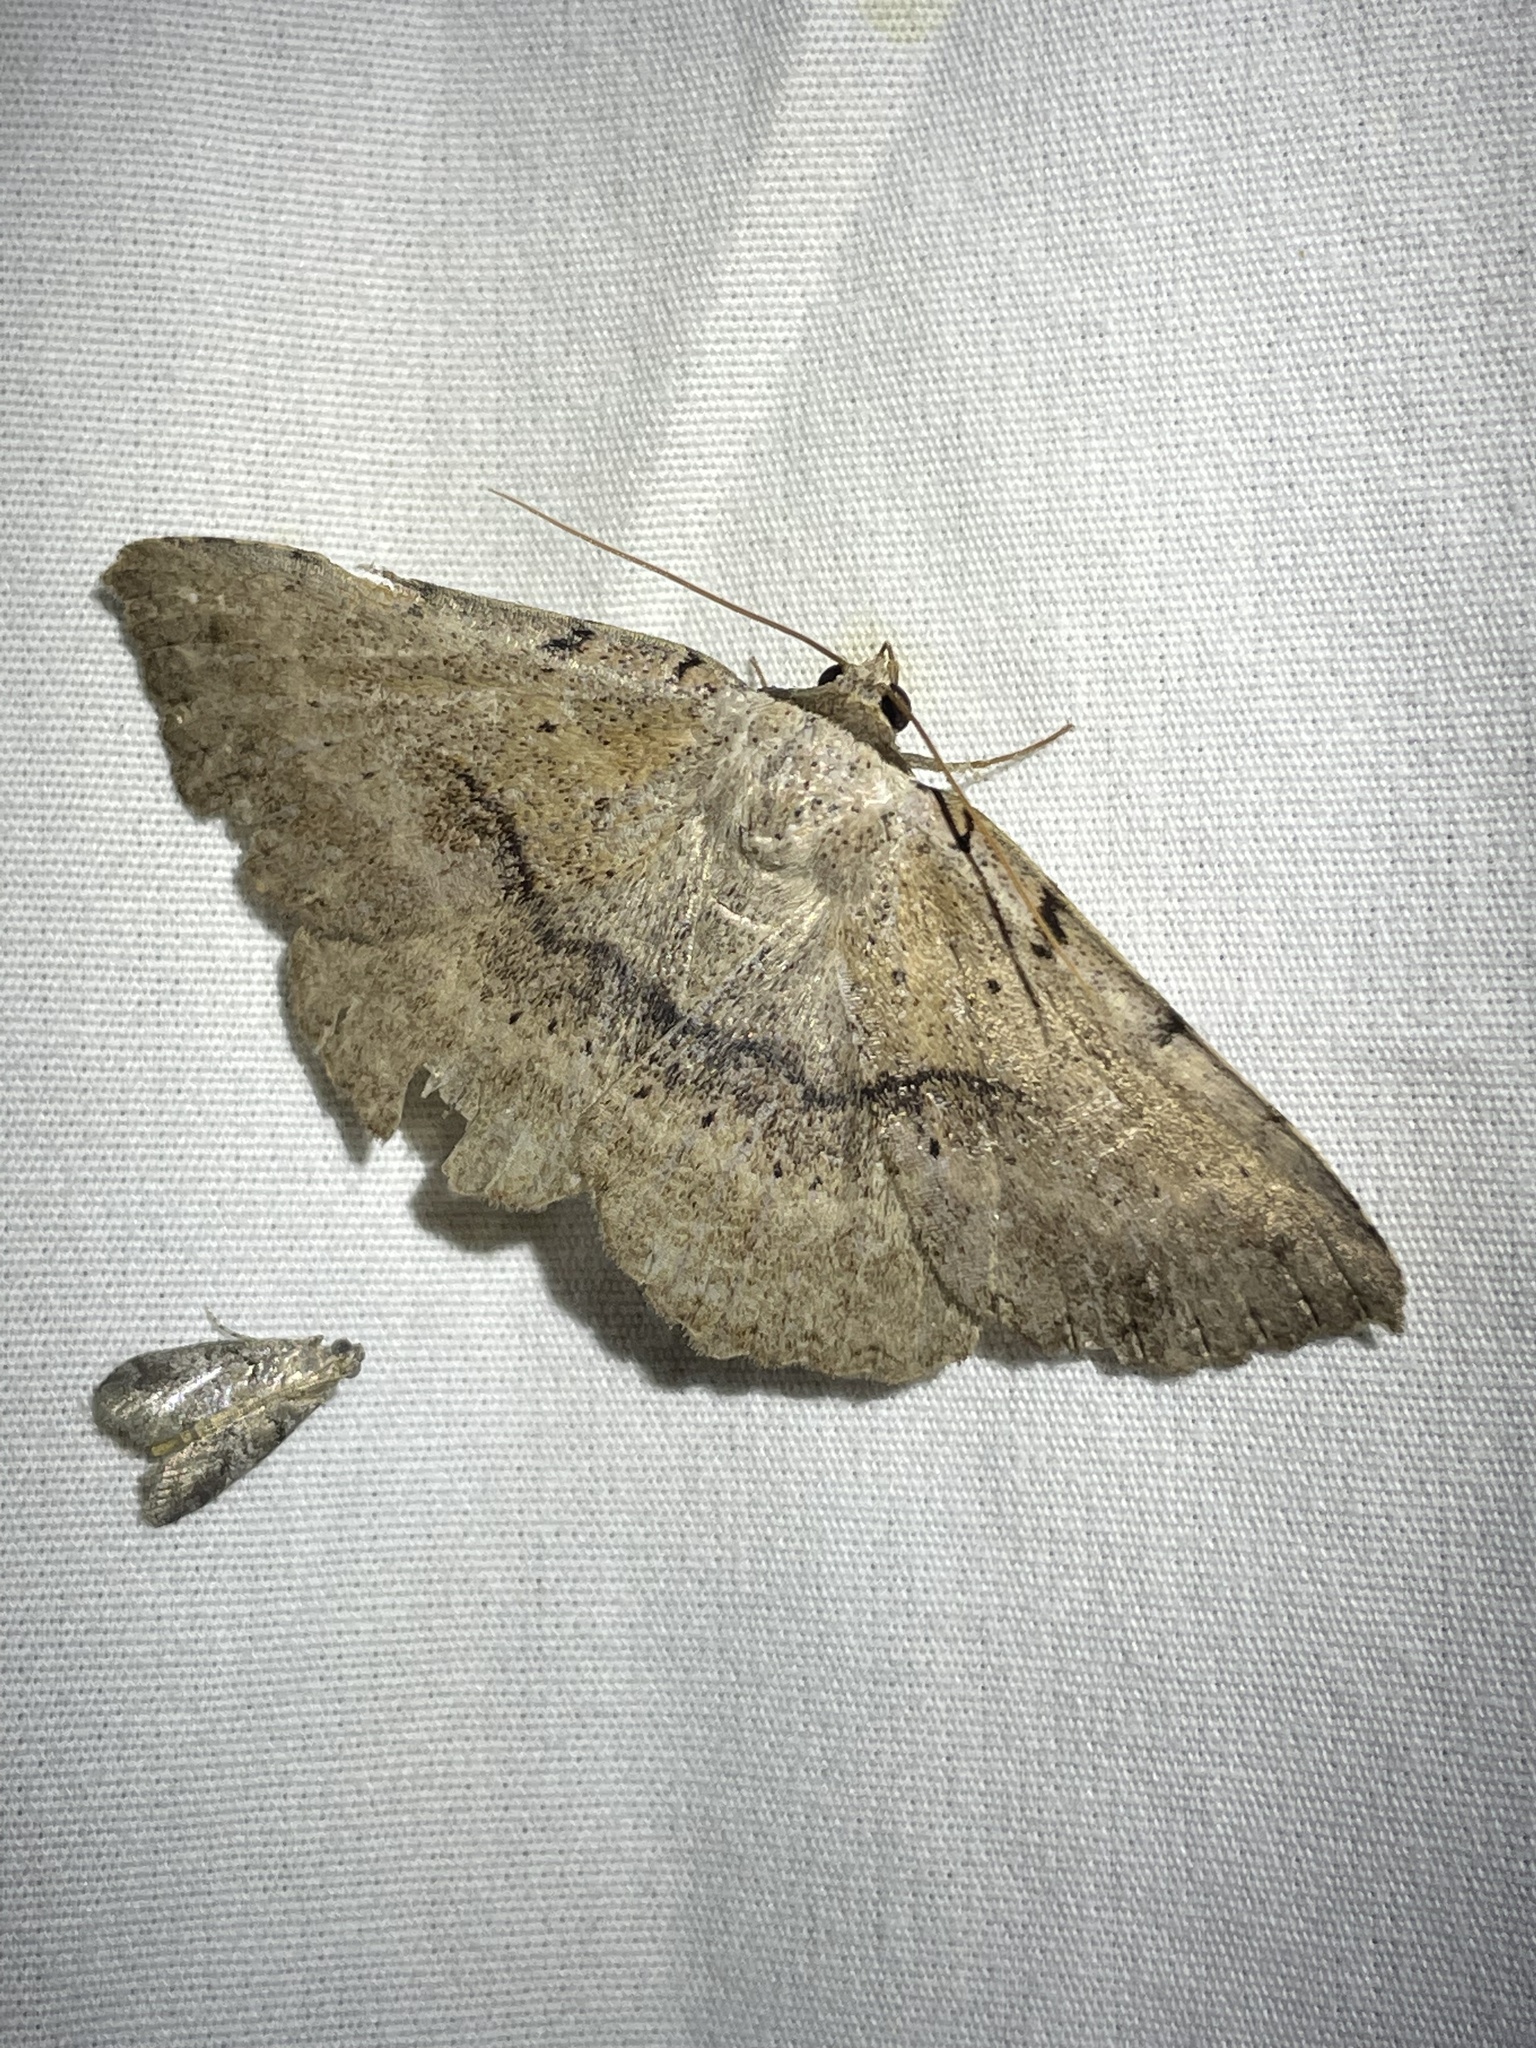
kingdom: Animalia
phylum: Arthropoda
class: Insecta
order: Lepidoptera
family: Erebidae
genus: Spiloloma
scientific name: Spiloloma lunilinea
